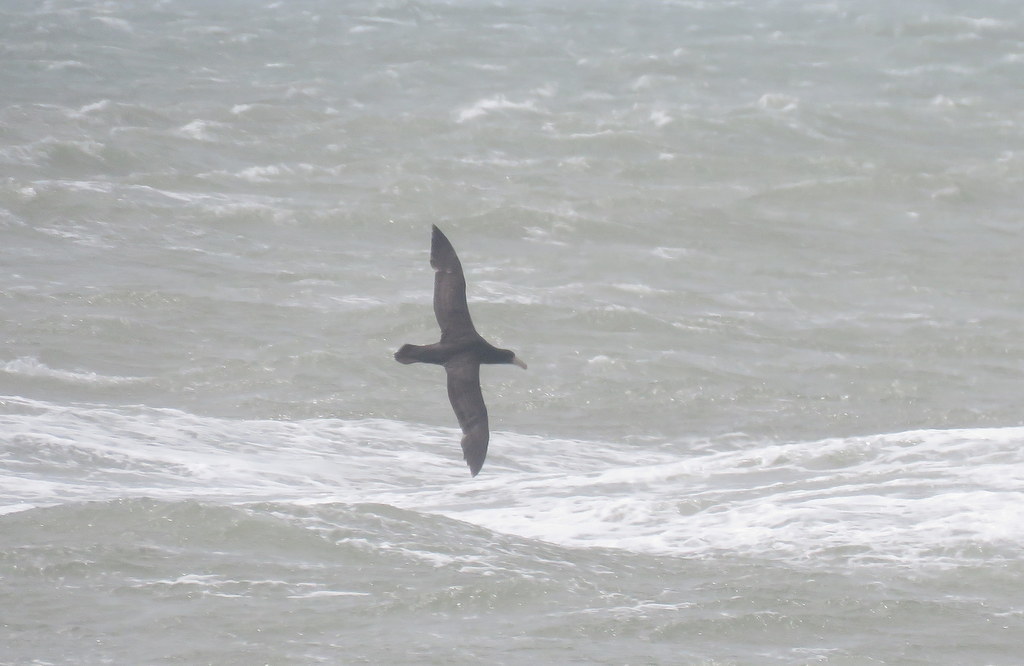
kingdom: Animalia
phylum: Chordata
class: Aves
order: Procellariiformes
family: Procellariidae
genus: Macronectes
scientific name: Macronectes giganteus
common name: Southern giant petrel
